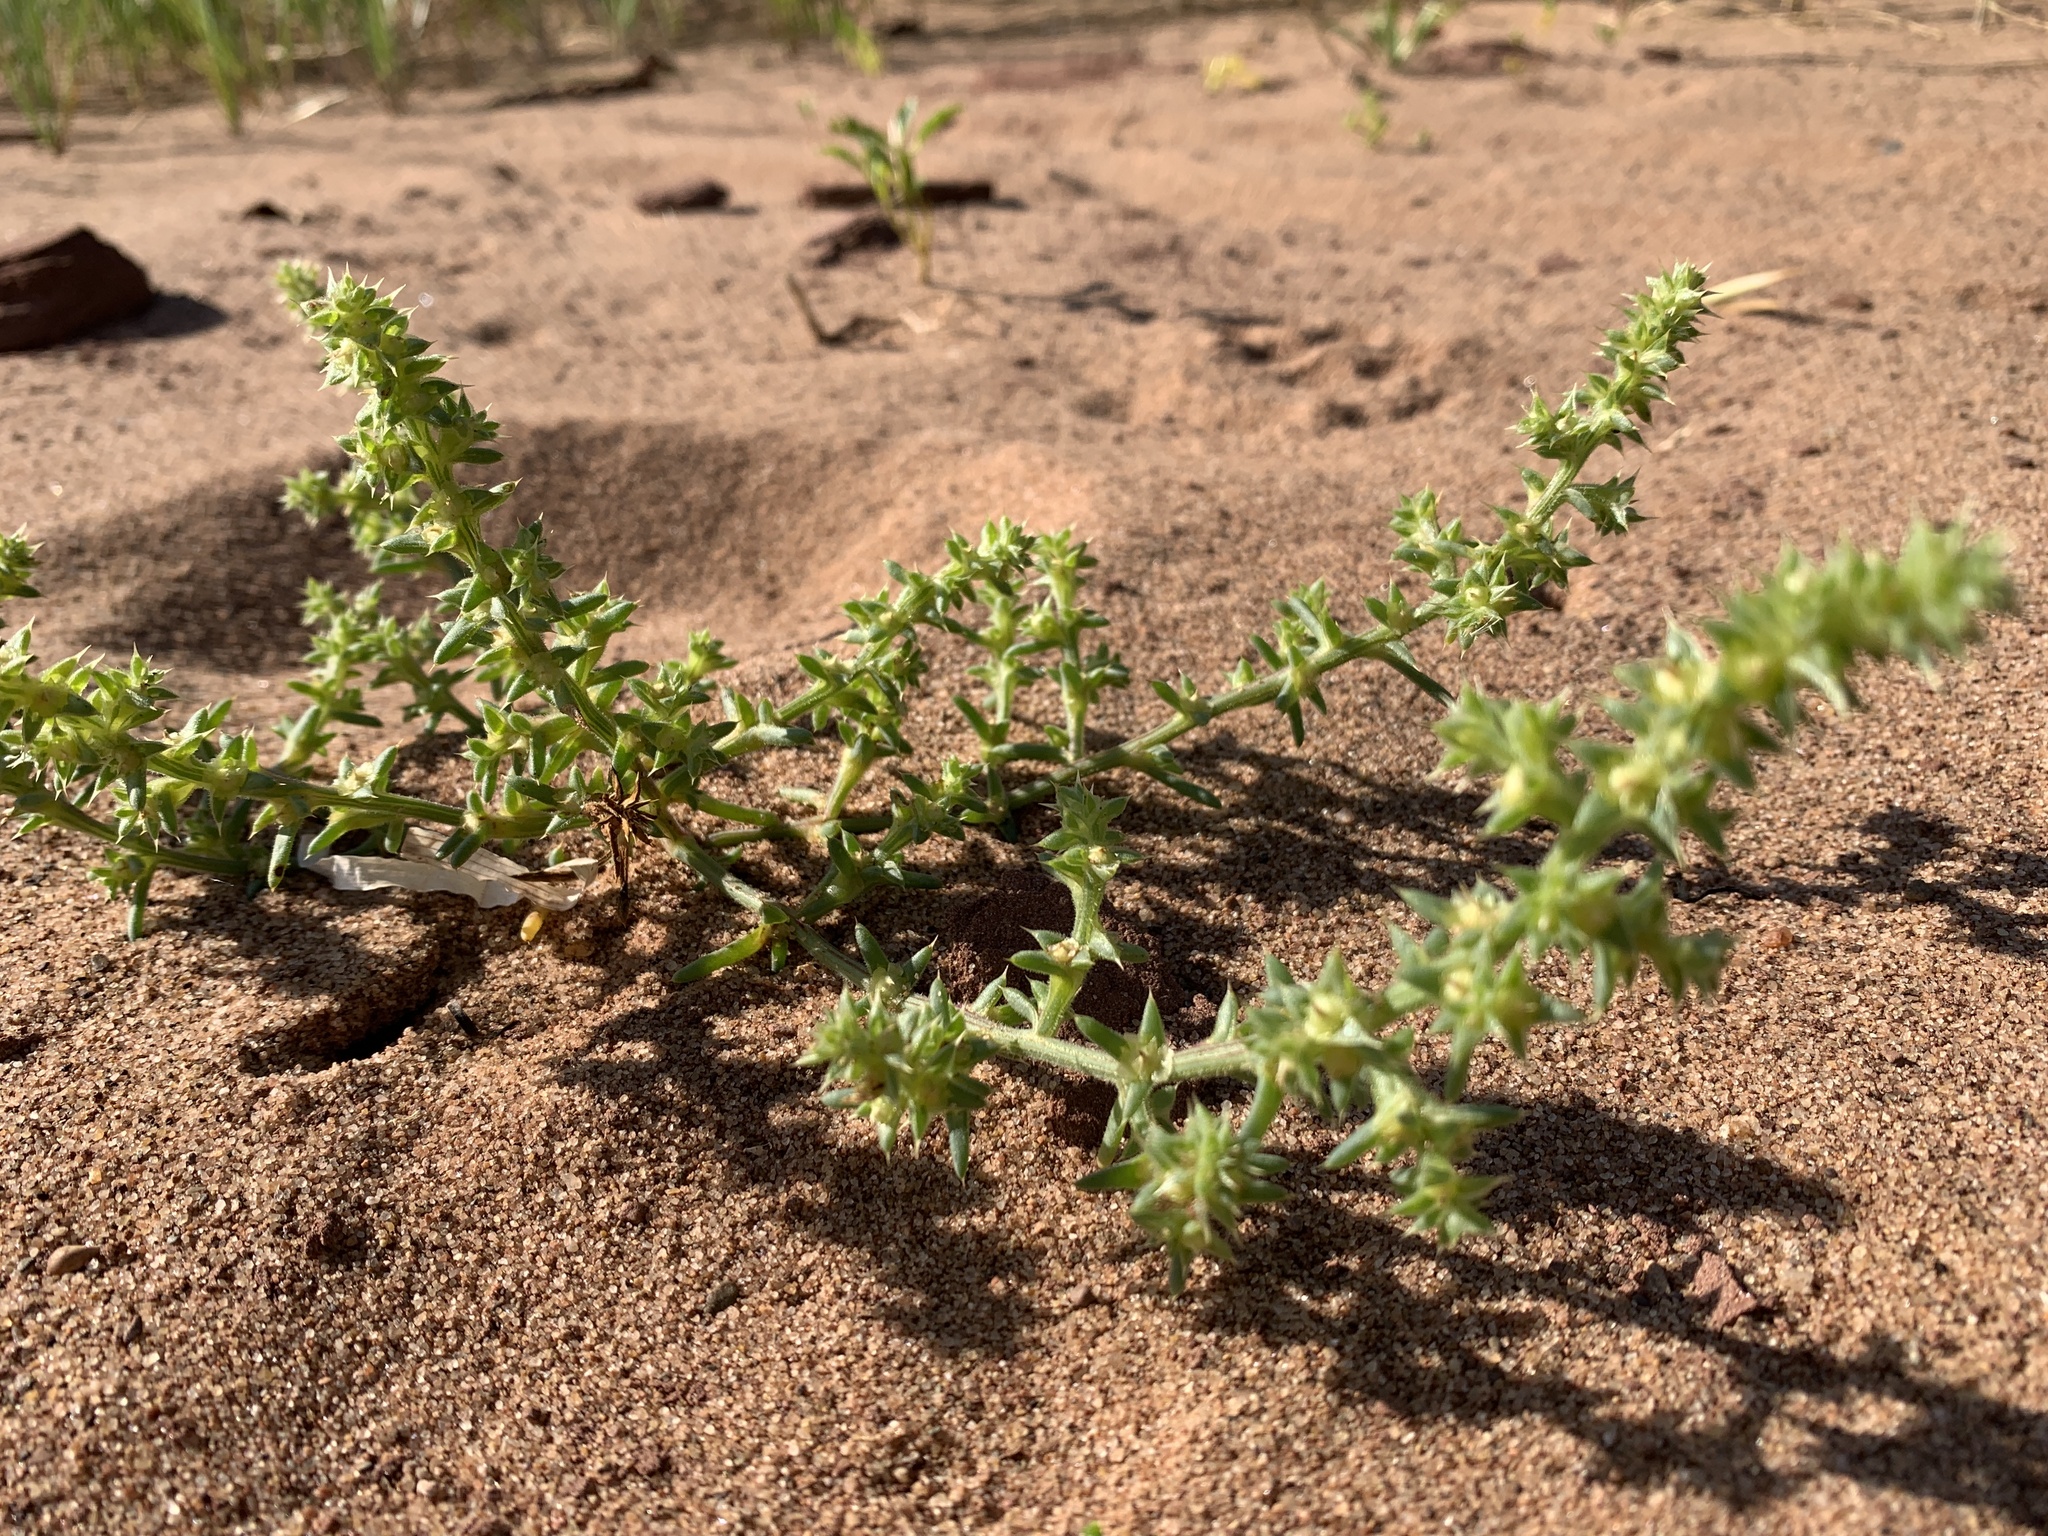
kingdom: Plantae
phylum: Tracheophyta
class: Magnoliopsida
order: Caryophyllales
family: Amaranthaceae
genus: Salsola
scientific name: Salsola kali
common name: Saltwort
